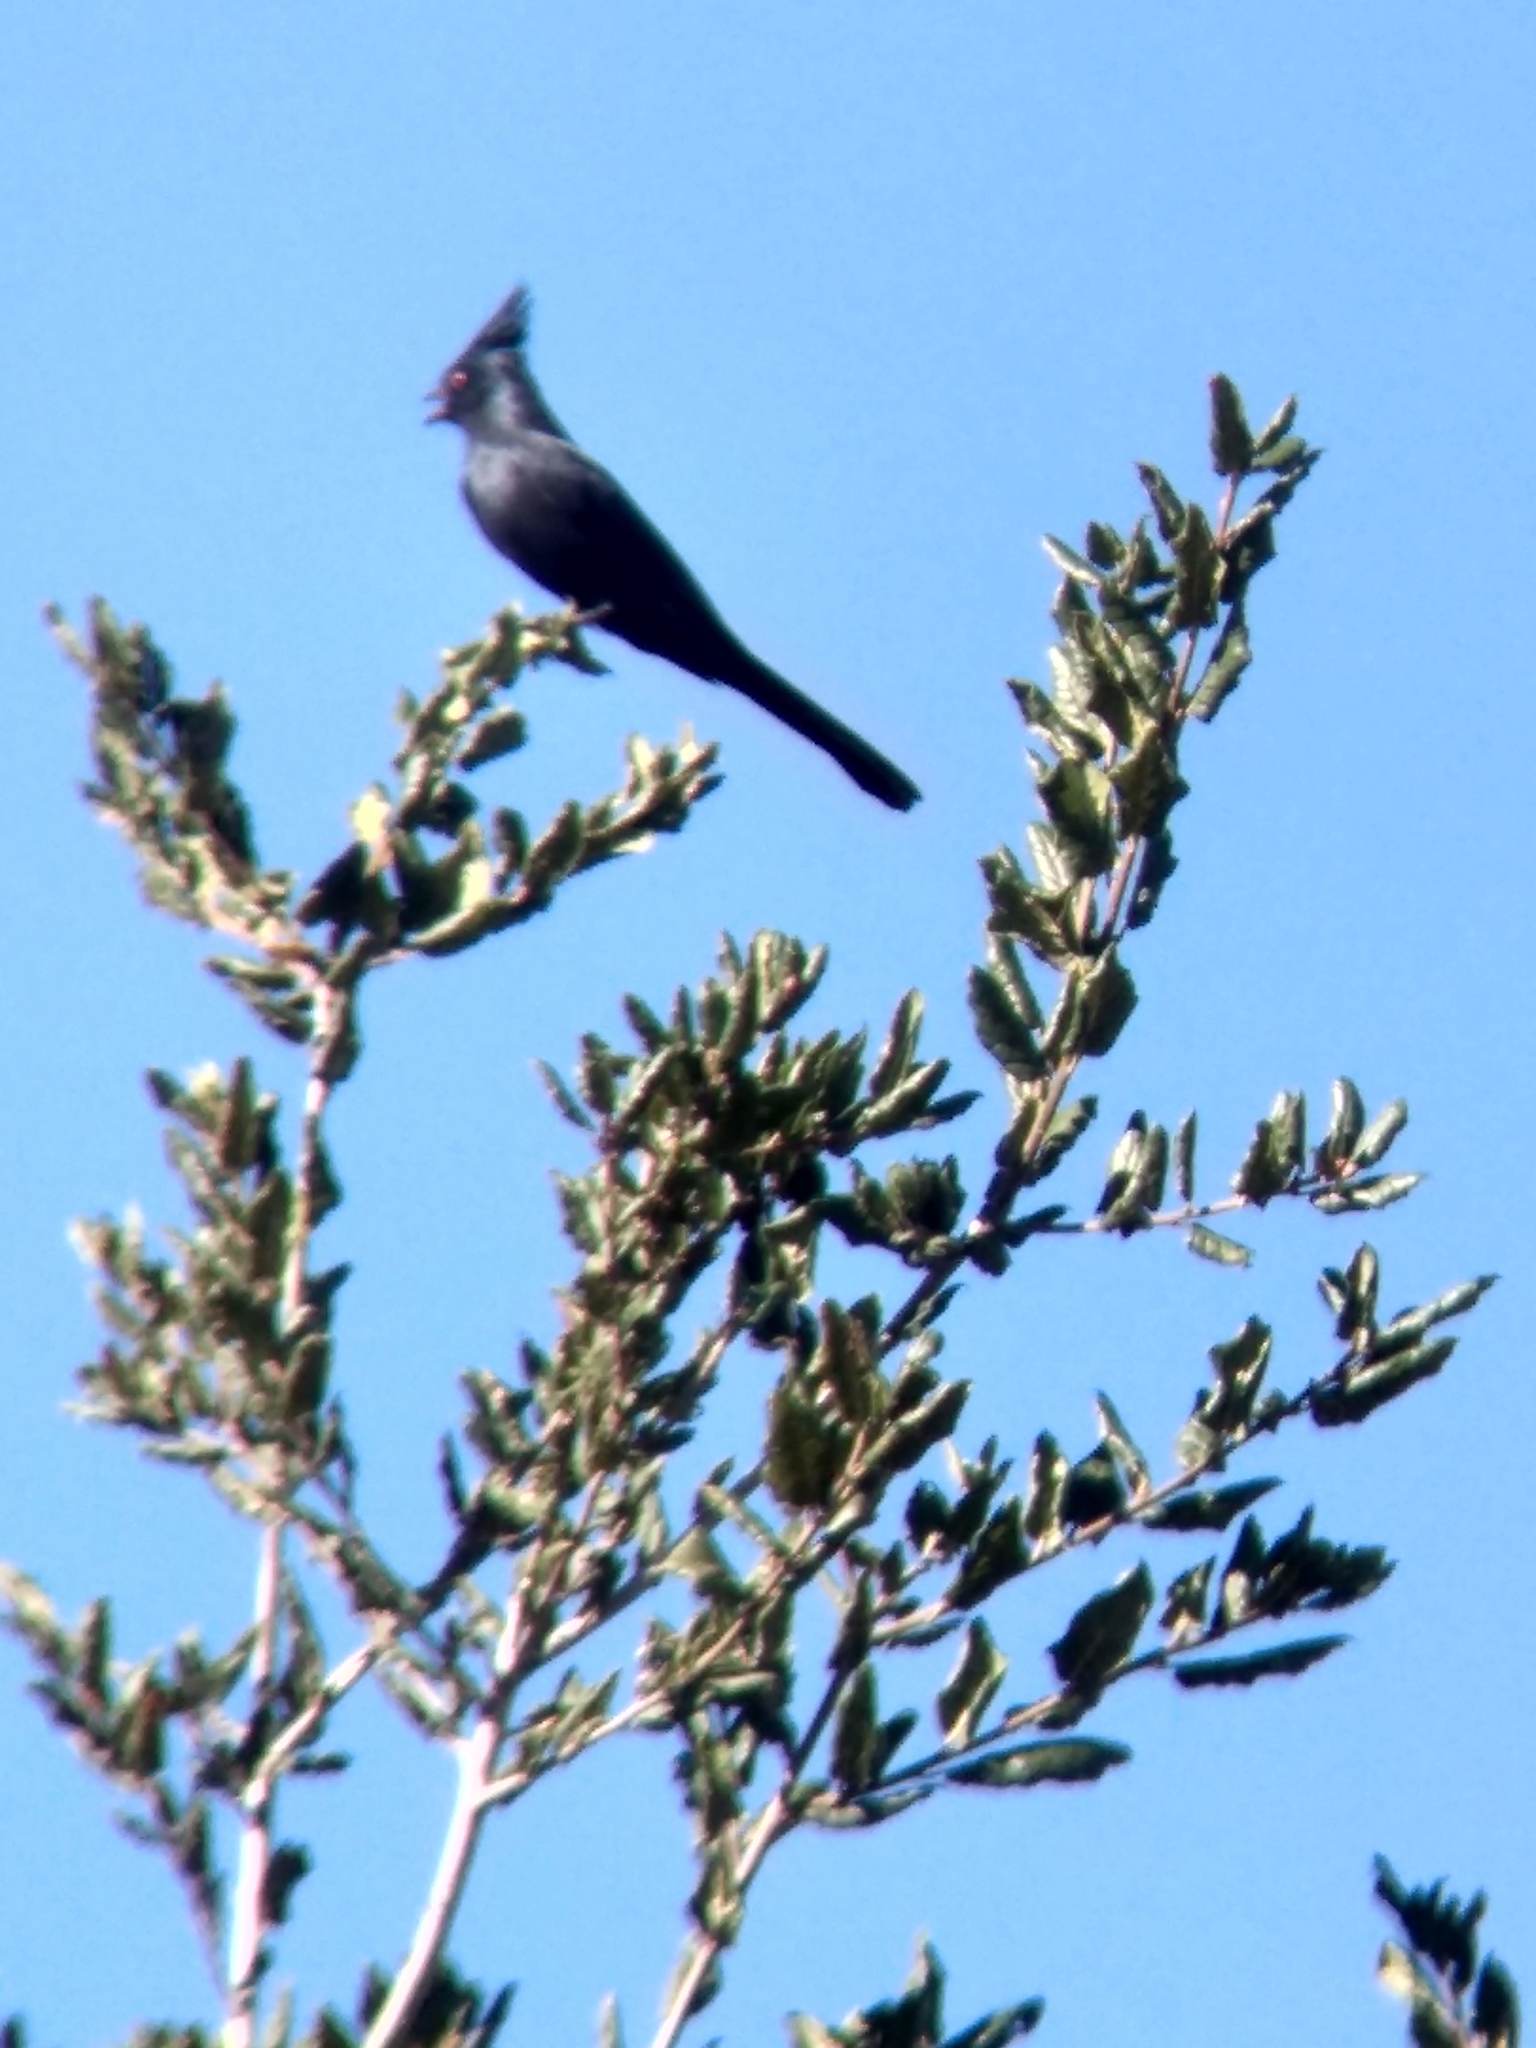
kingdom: Animalia
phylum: Chordata
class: Aves
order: Passeriformes
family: Ptilogonatidae
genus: Phainopepla
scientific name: Phainopepla nitens
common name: Phainopepla
